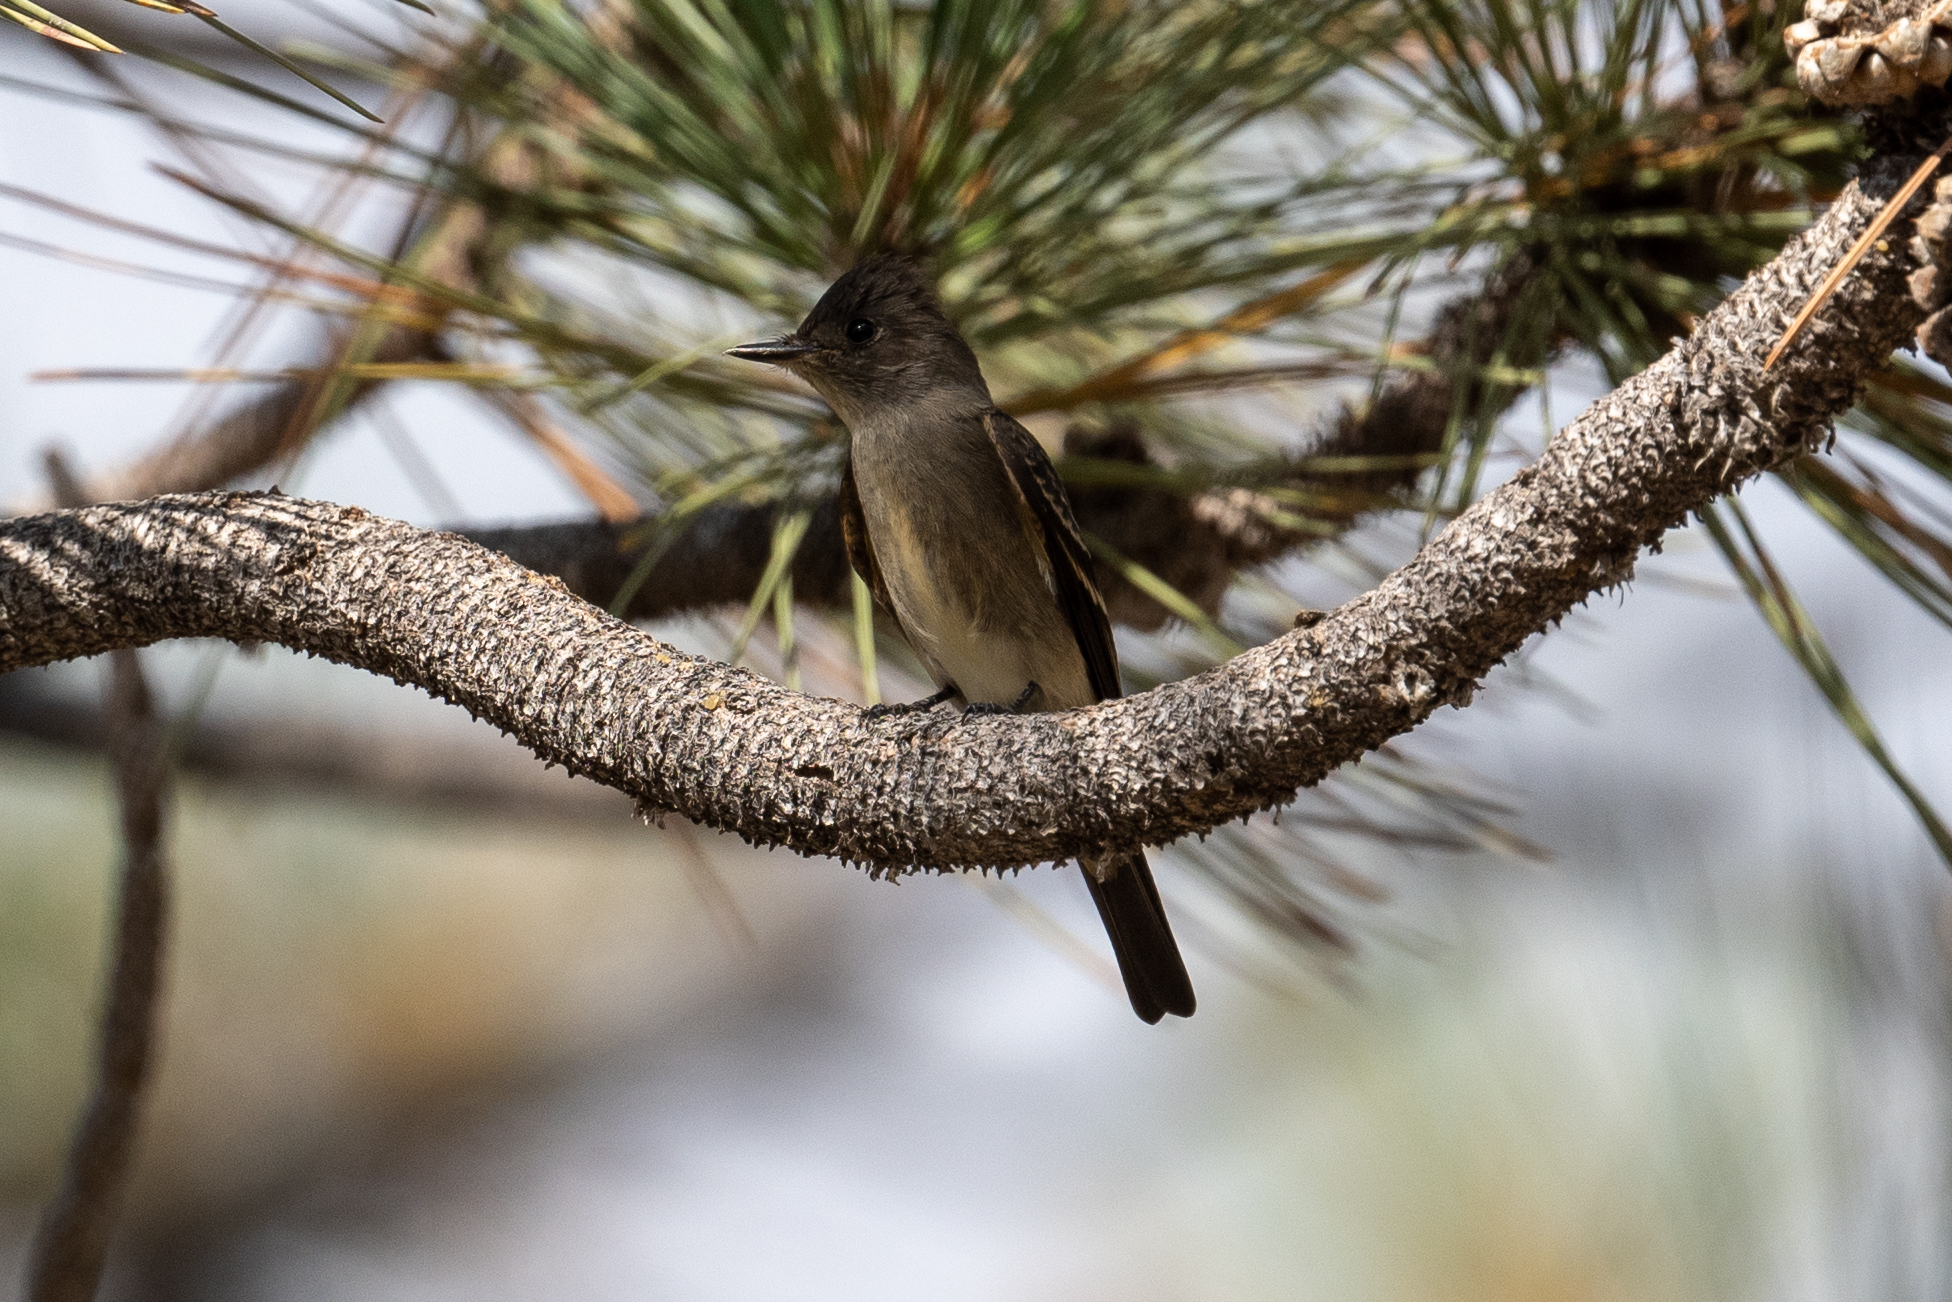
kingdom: Animalia
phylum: Chordata
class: Aves
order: Passeriformes
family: Tyrannidae
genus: Contopus
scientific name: Contopus sordidulus
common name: Western wood-pewee
